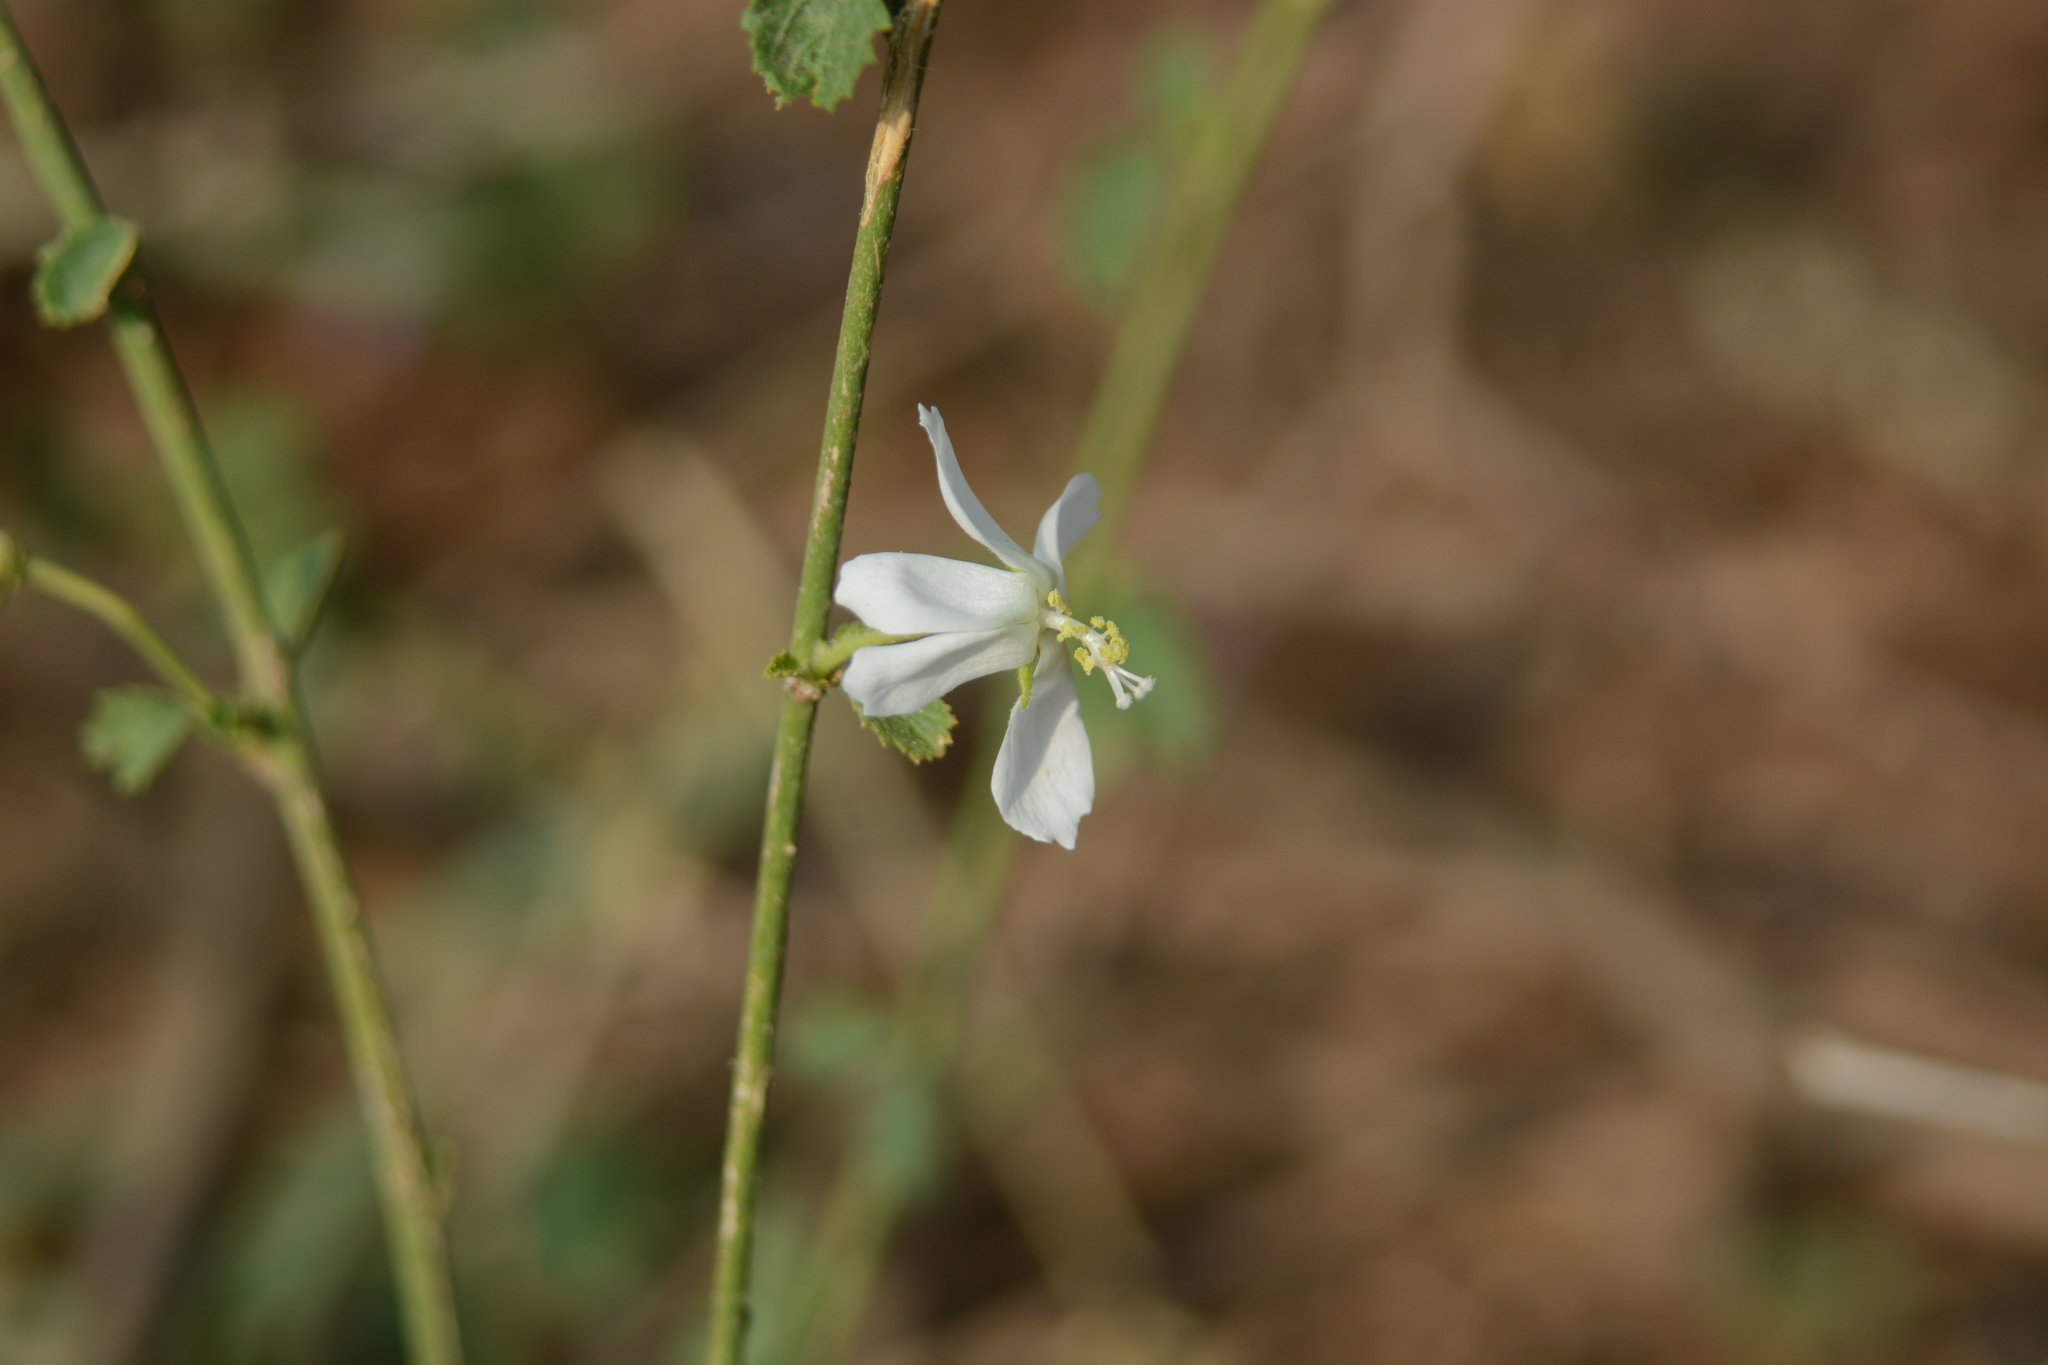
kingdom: Plantae
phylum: Tracheophyta
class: Magnoliopsida
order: Malvales
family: Malvaceae
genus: Hibiscus
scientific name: Hibiscus micranthus
